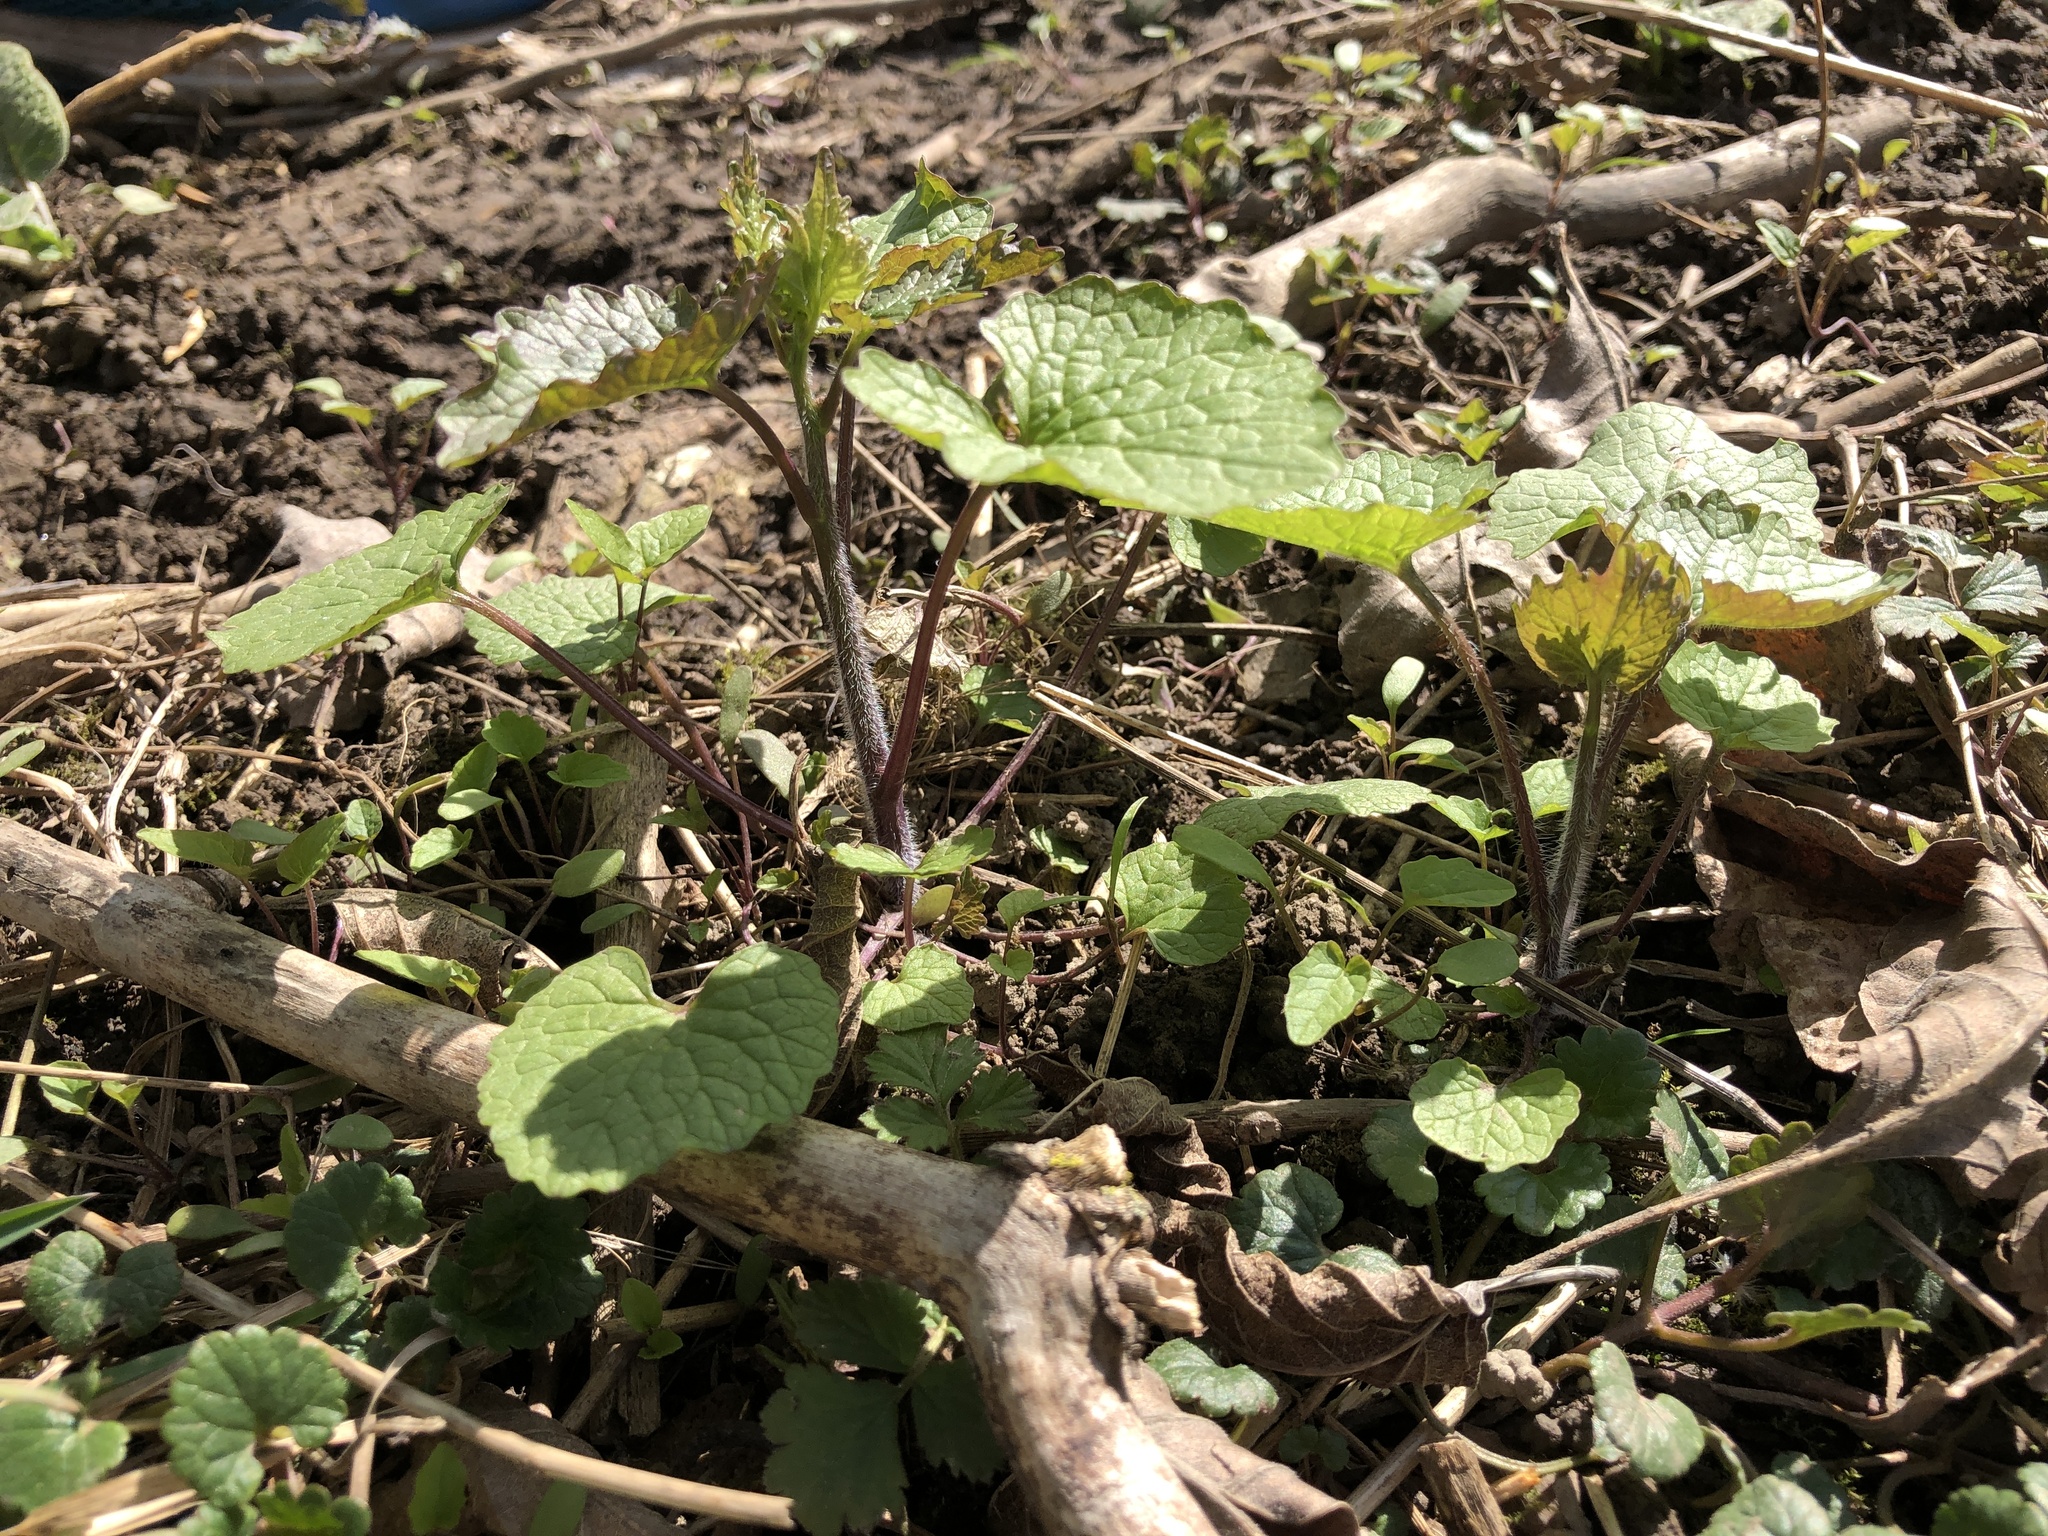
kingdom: Plantae
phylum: Tracheophyta
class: Magnoliopsida
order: Brassicales
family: Brassicaceae
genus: Alliaria
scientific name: Alliaria petiolata
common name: Garlic mustard
